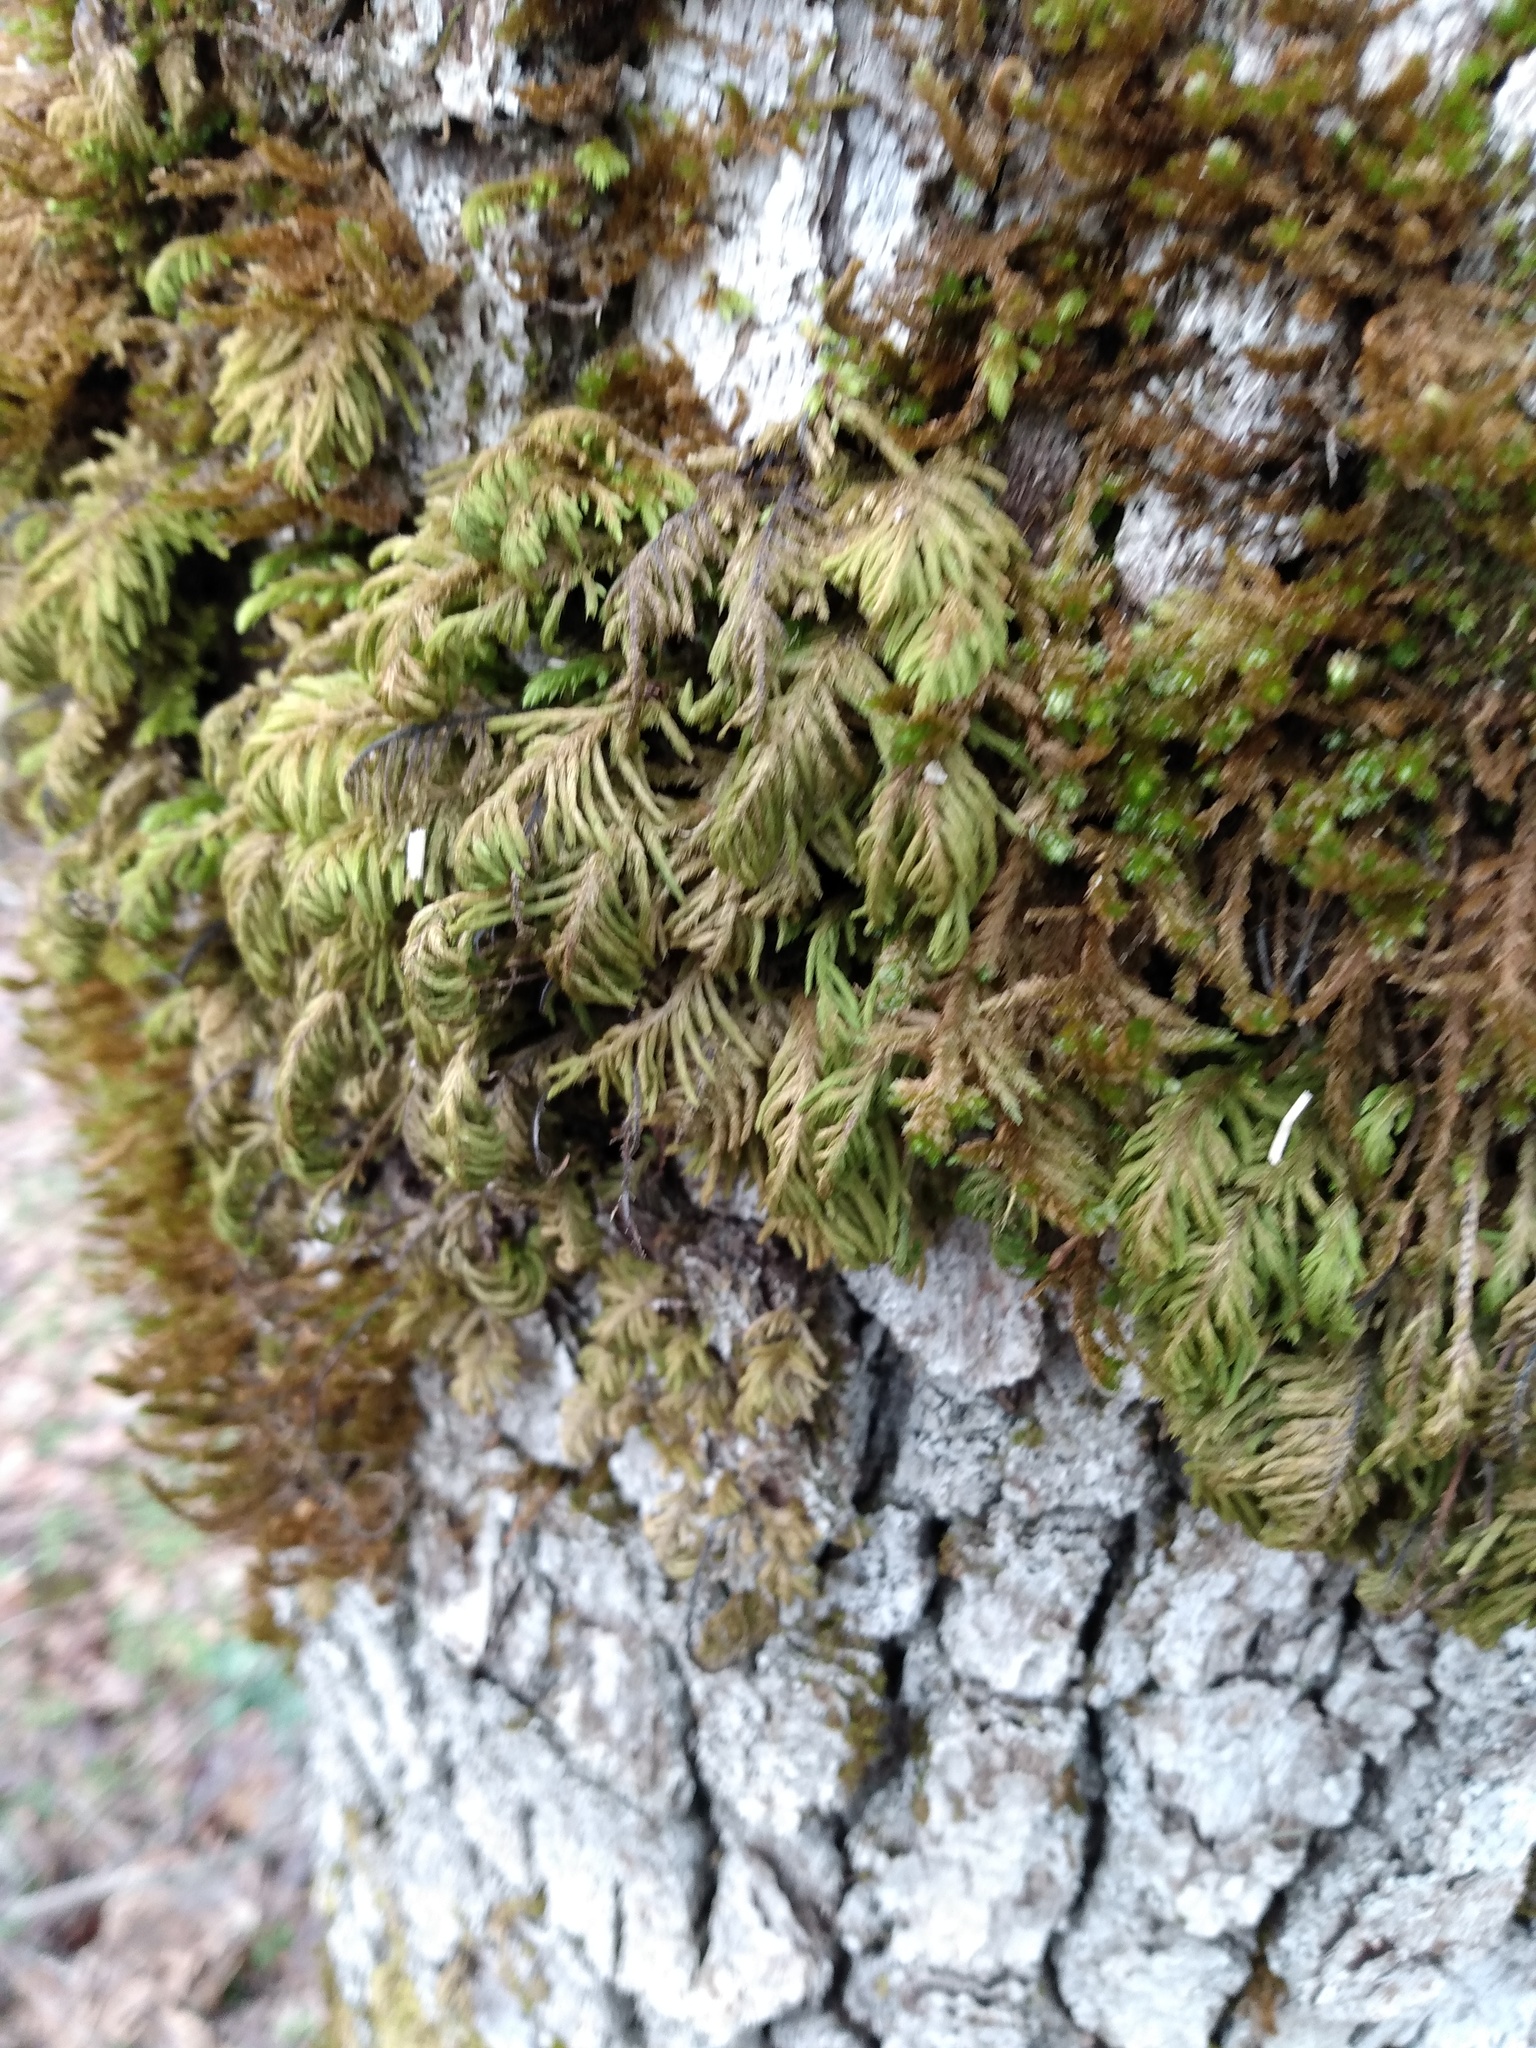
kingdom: Plantae
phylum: Bryophyta
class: Bryopsida
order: Hypnales
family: Cryphaeaceae
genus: Dendroalsia
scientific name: Dendroalsia abietina
